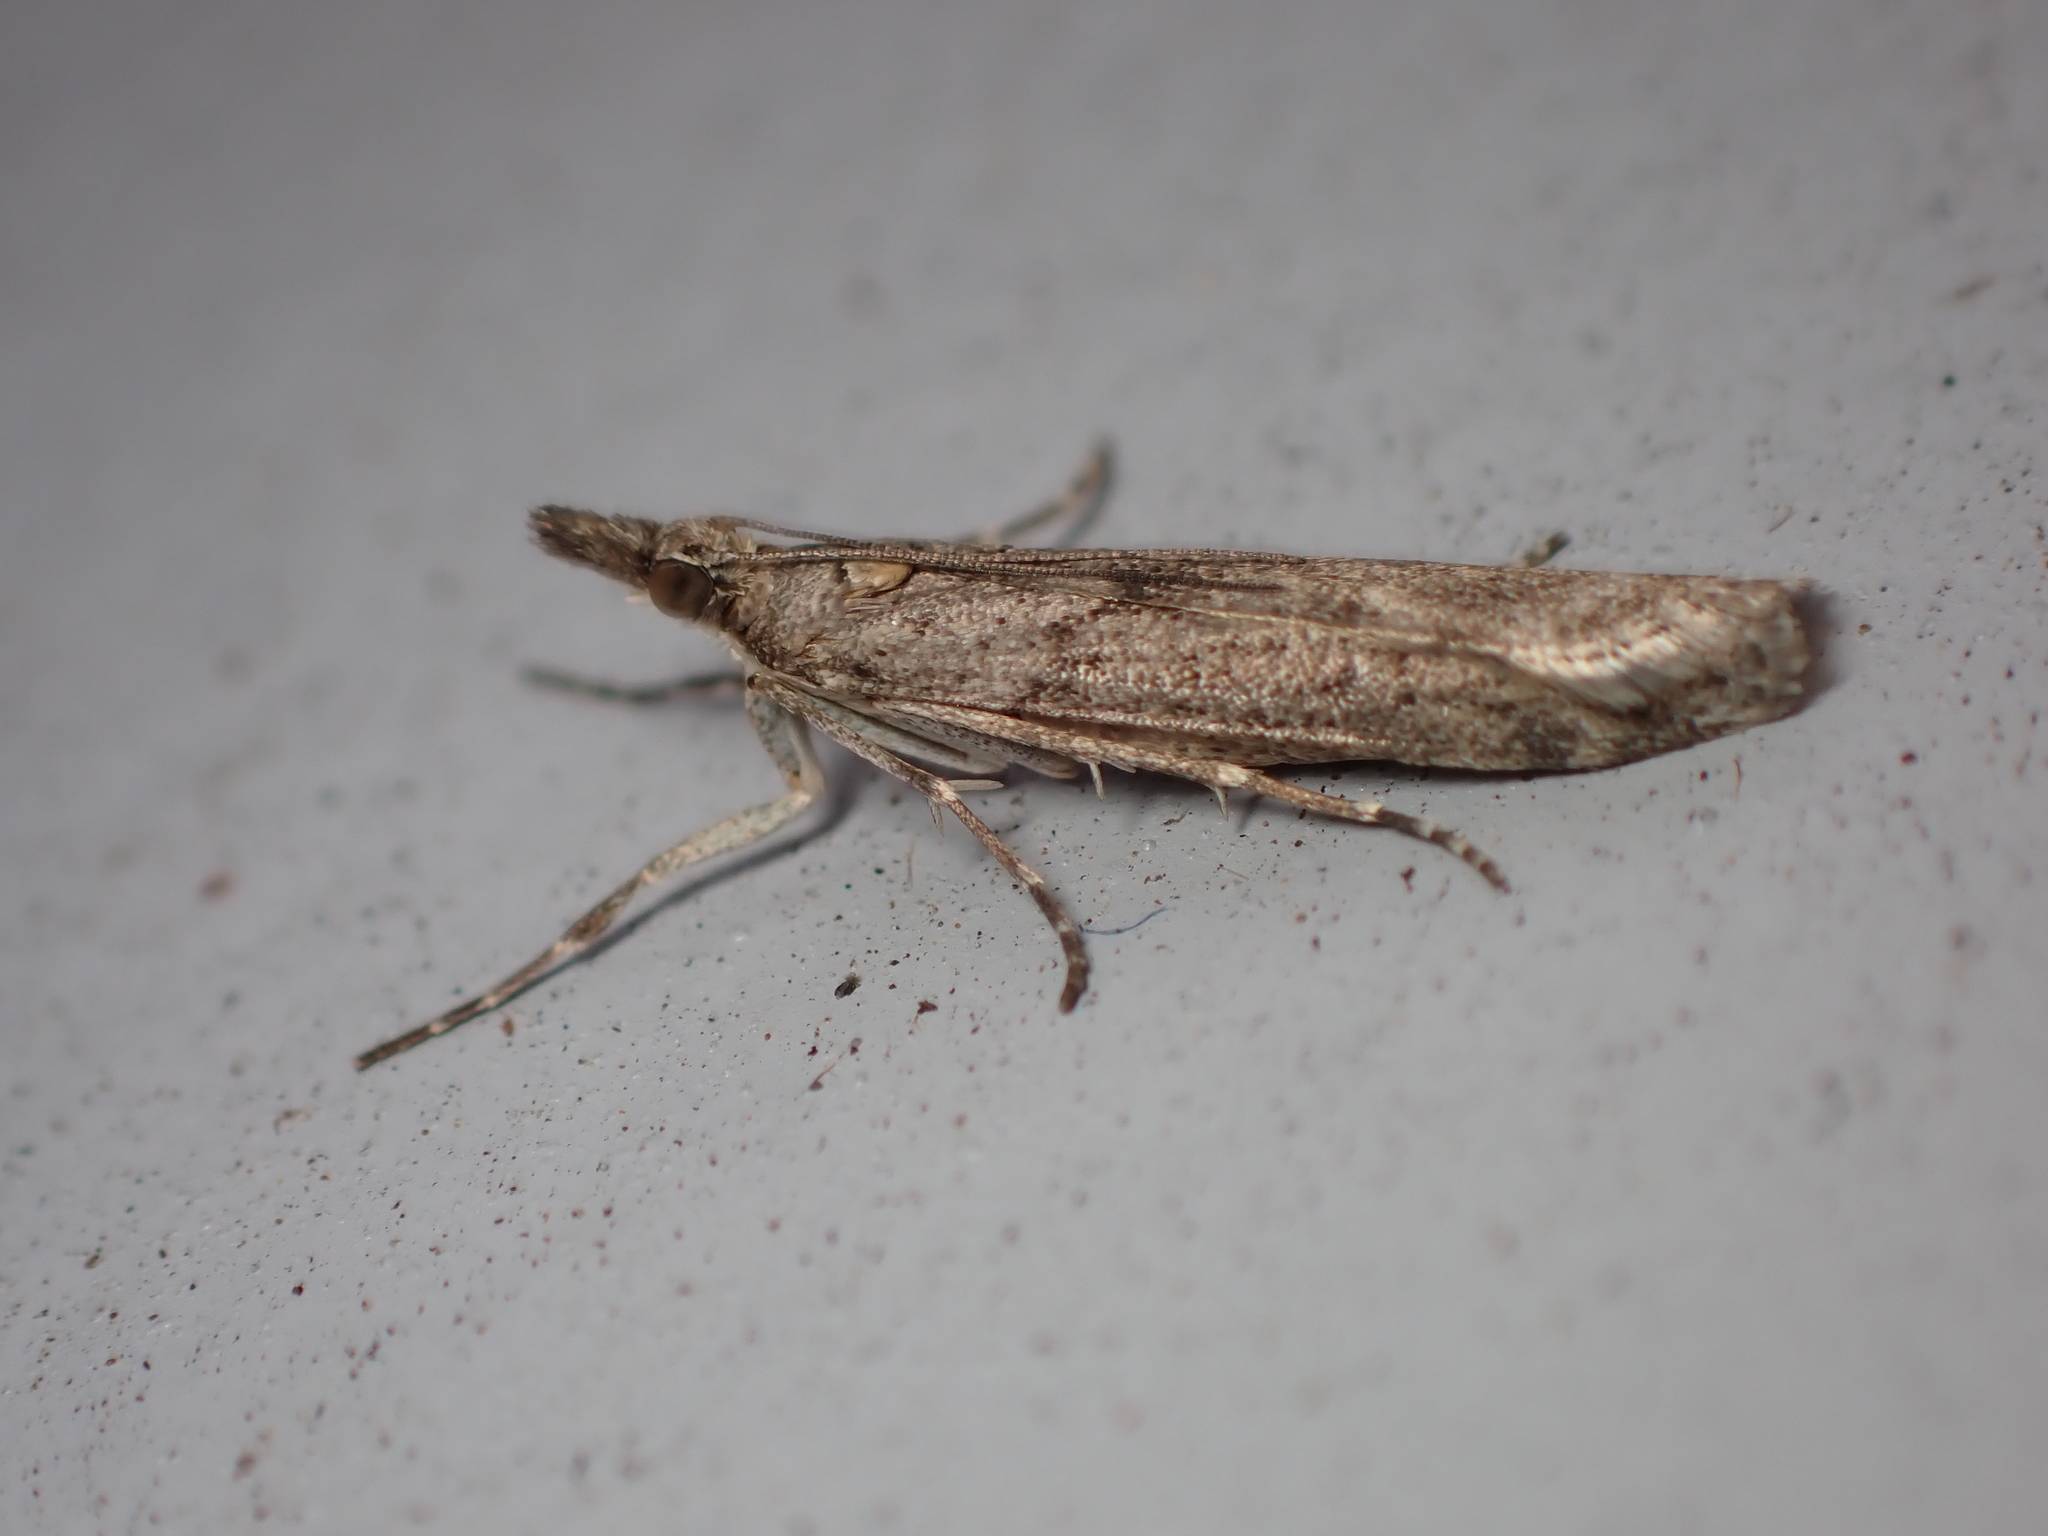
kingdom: Animalia
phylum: Arthropoda
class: Insecta
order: Lepidoptera
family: Crambidae
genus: Eudonia
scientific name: Eudonia leptalea
